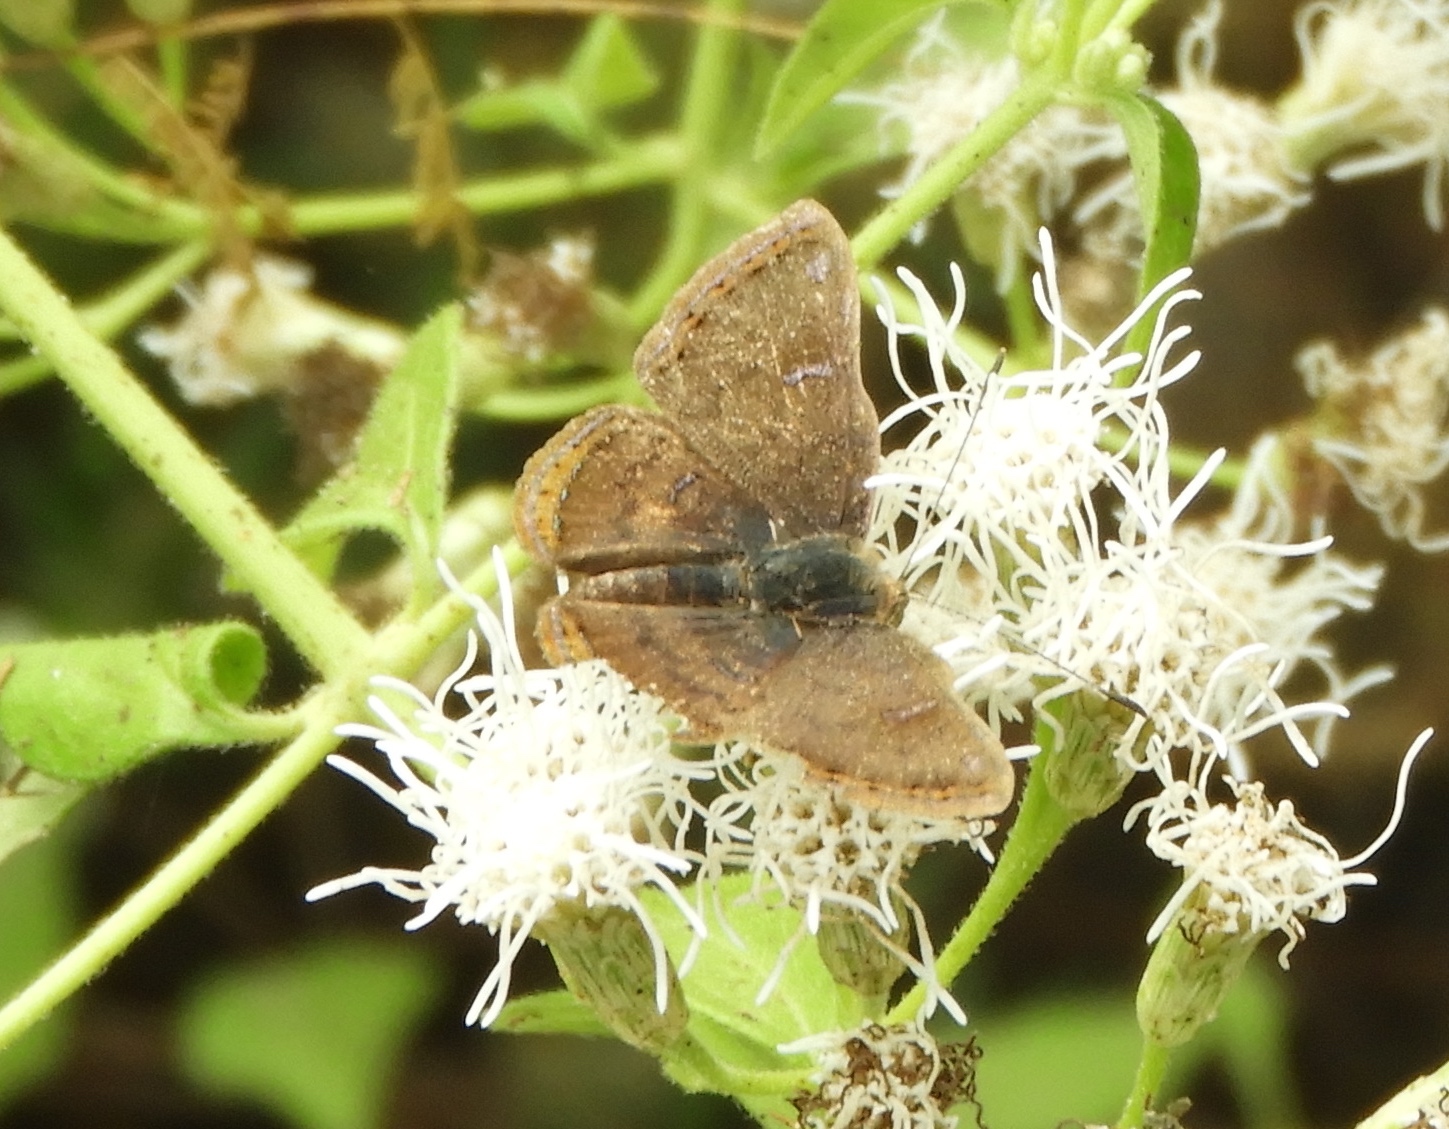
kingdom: Animalia
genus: Caria
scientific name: Caria ino
